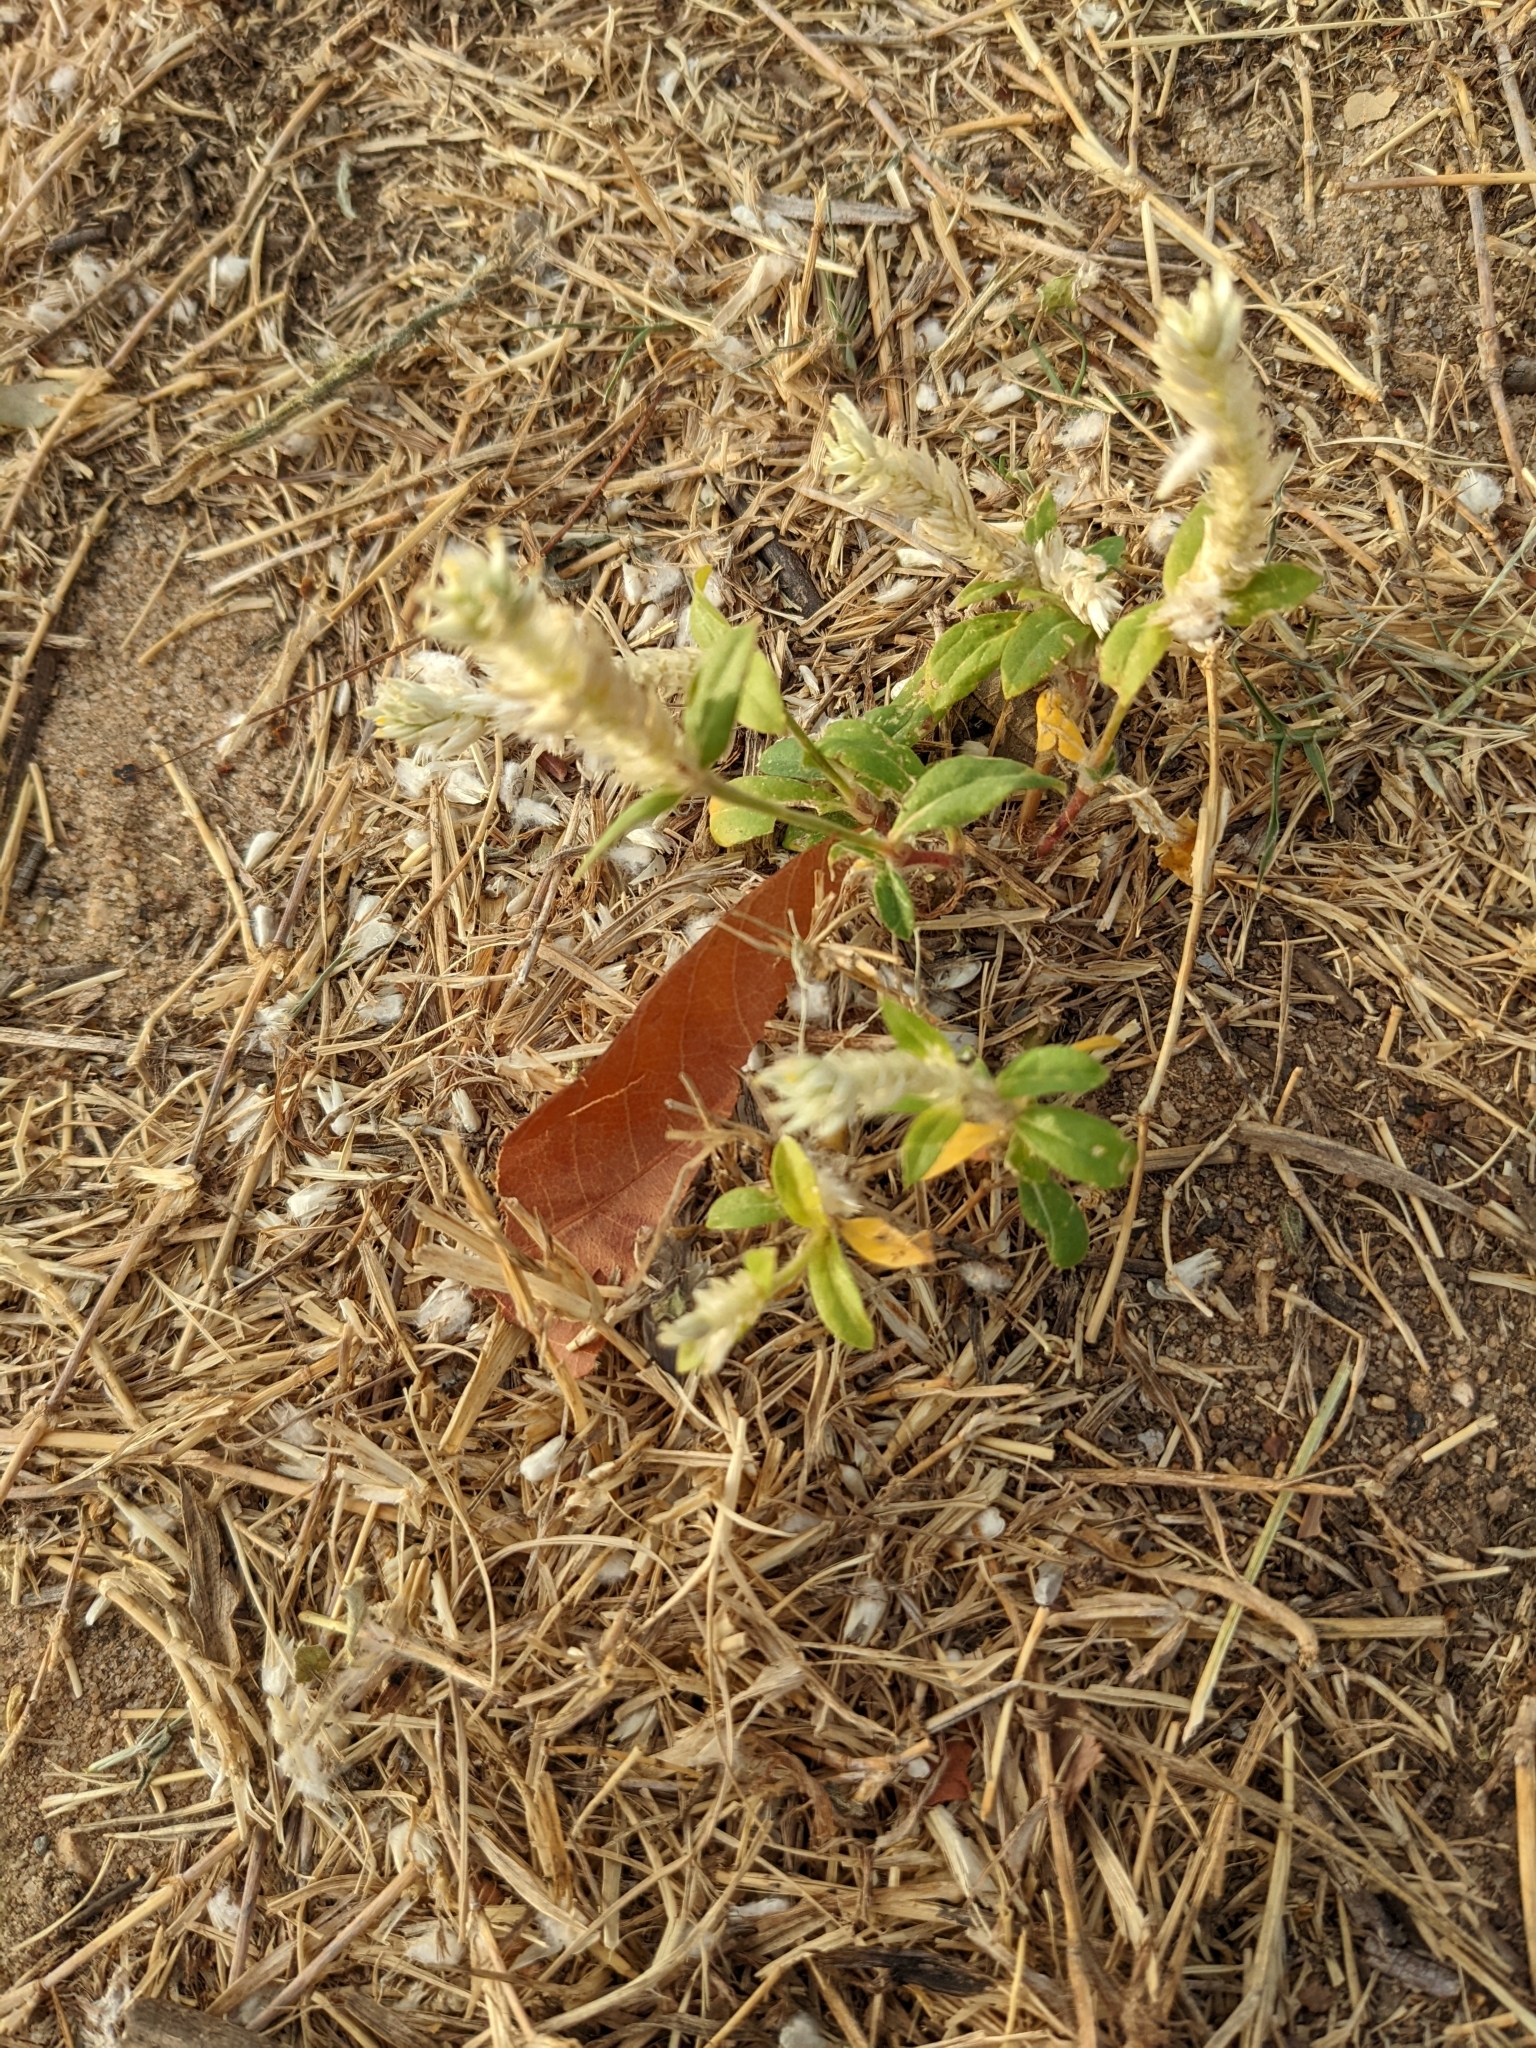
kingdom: Plantae
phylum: Tracheophyta
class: Magnoliopsida
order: Caryophyllales
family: Amaranthaceae
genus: Gomphrena
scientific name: Gomphrena celosioides
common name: Gomphrena-weed
